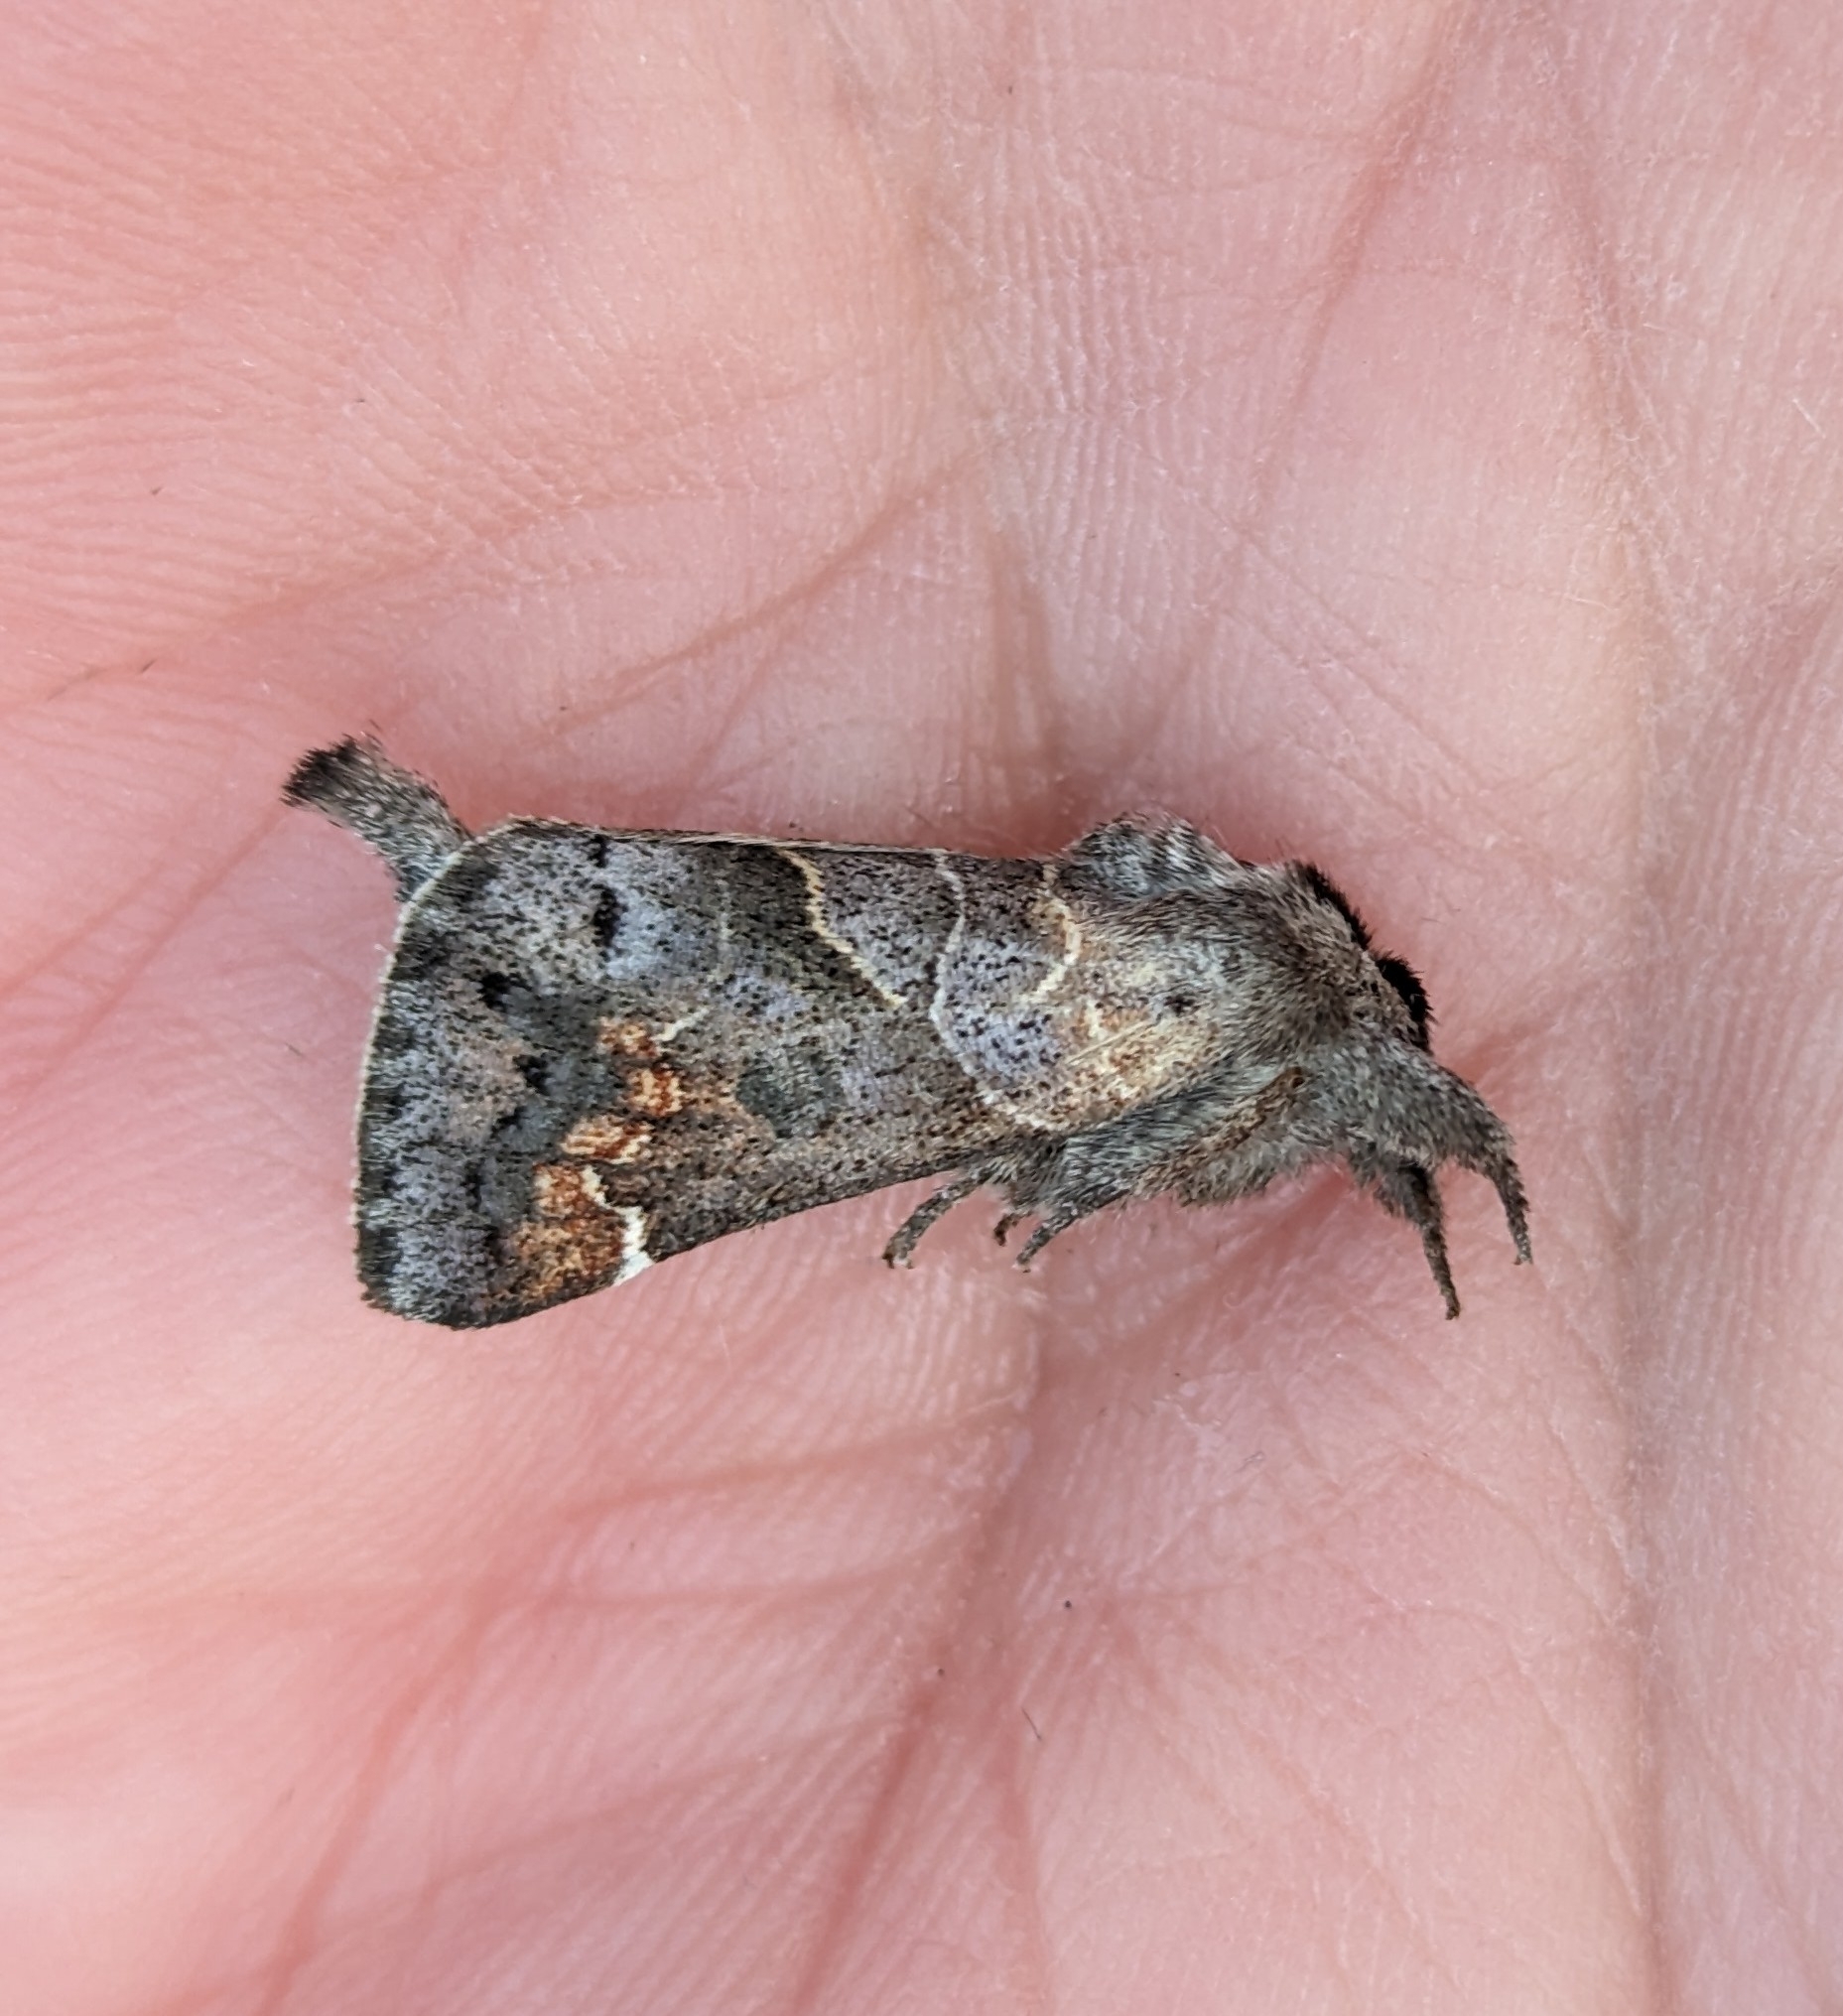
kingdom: Animalia
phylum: Arthropoda
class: Insecta
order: Lepidoptera
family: Notodontidae
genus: Clostera
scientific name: Clostera apicalis
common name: Apical prominent
